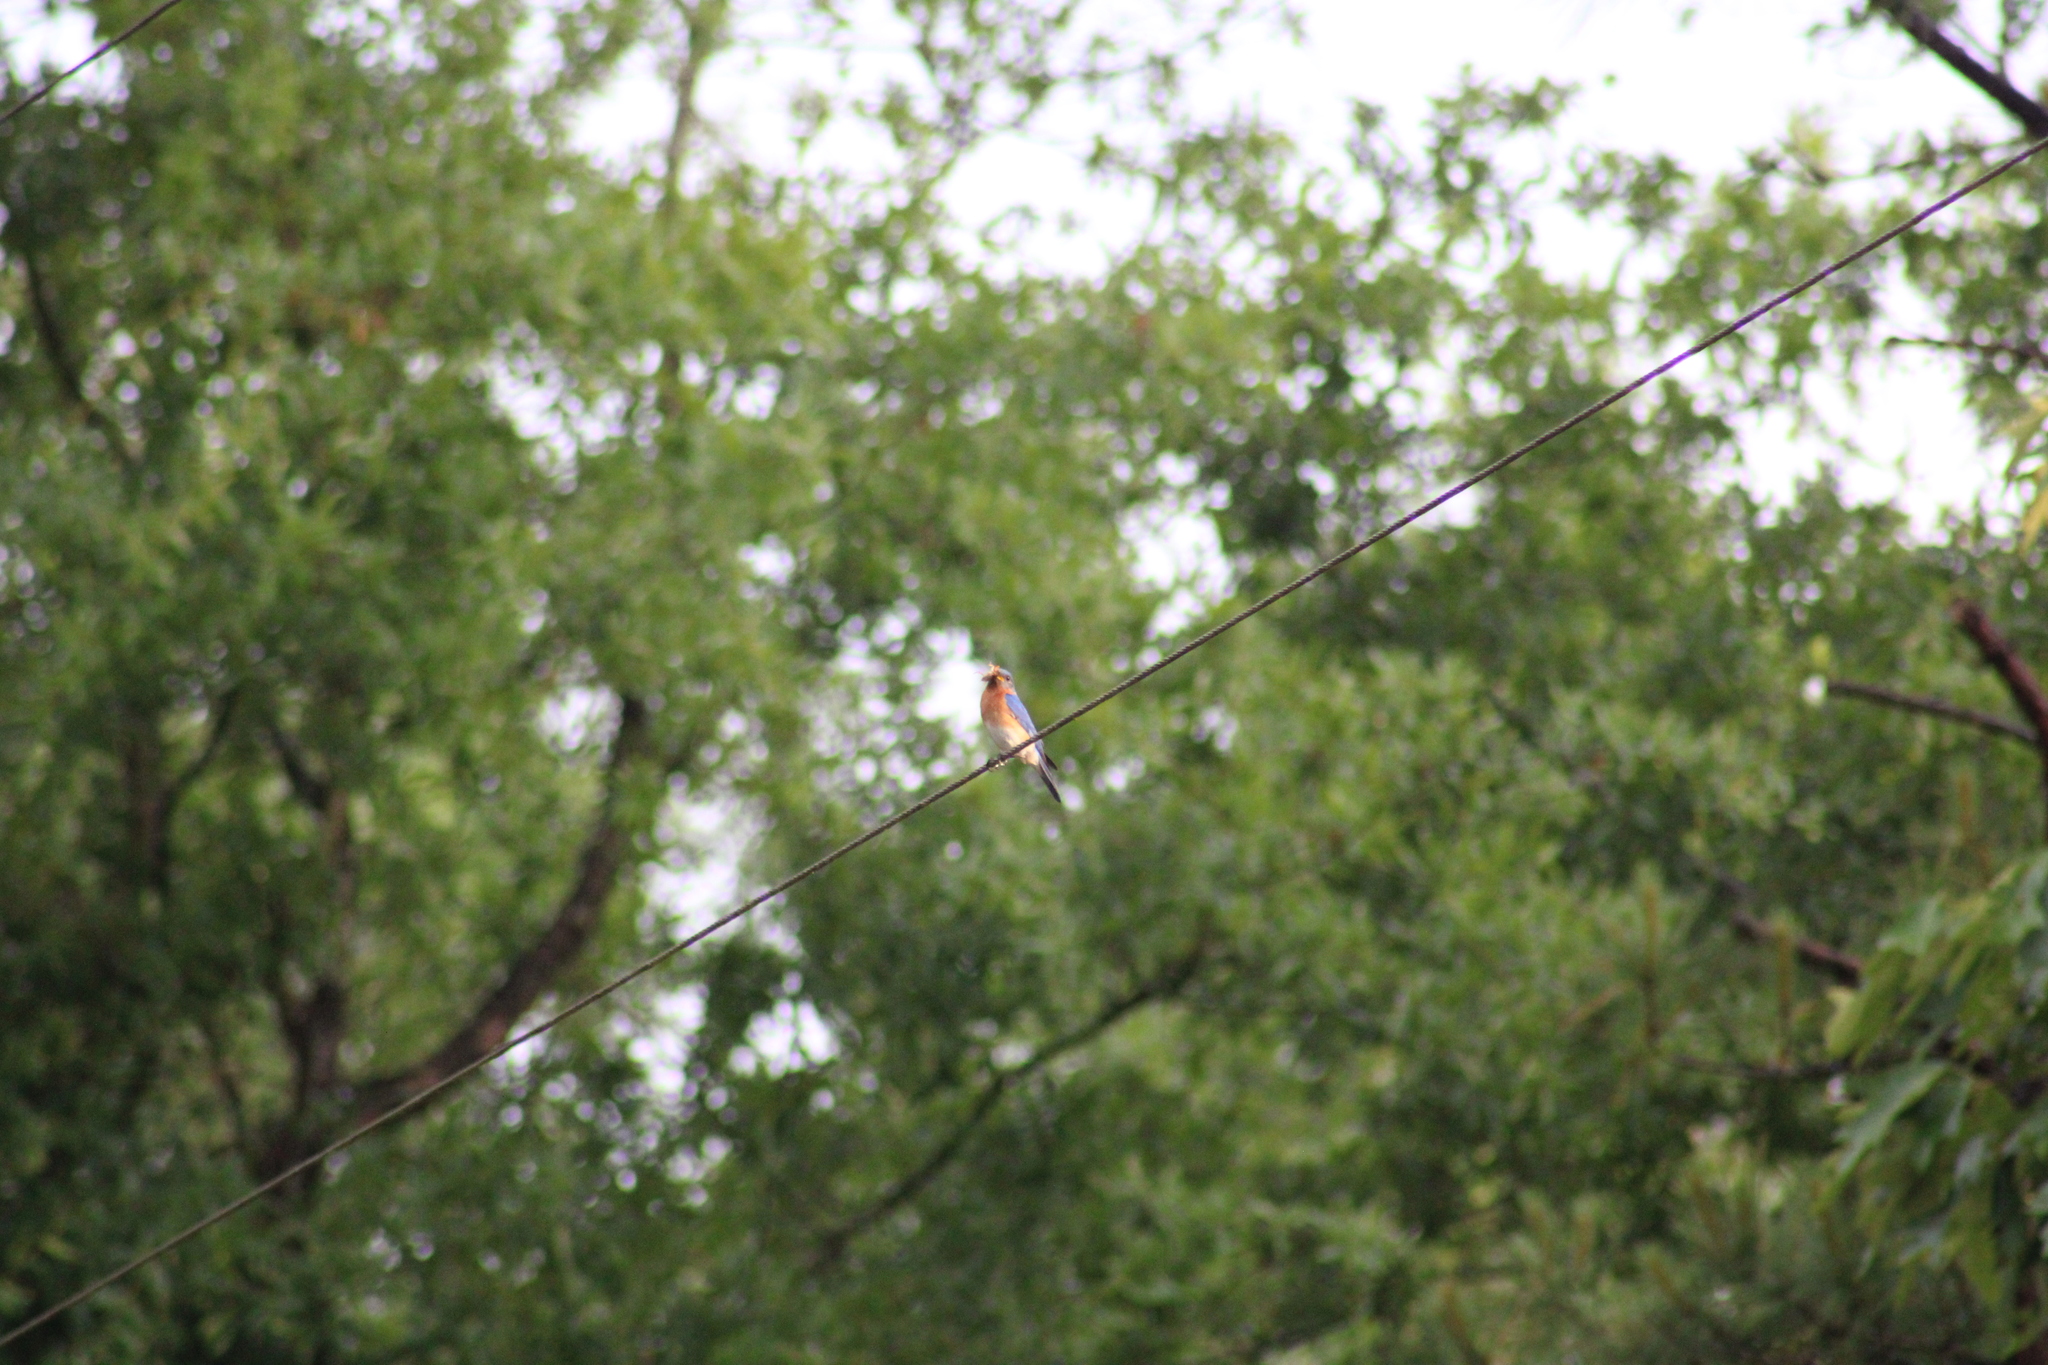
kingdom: Animalia
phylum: Chordata
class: Aves
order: Passeriformes
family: Turdidae
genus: Sialia
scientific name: Sialia sialis
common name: Eastern bluebird
